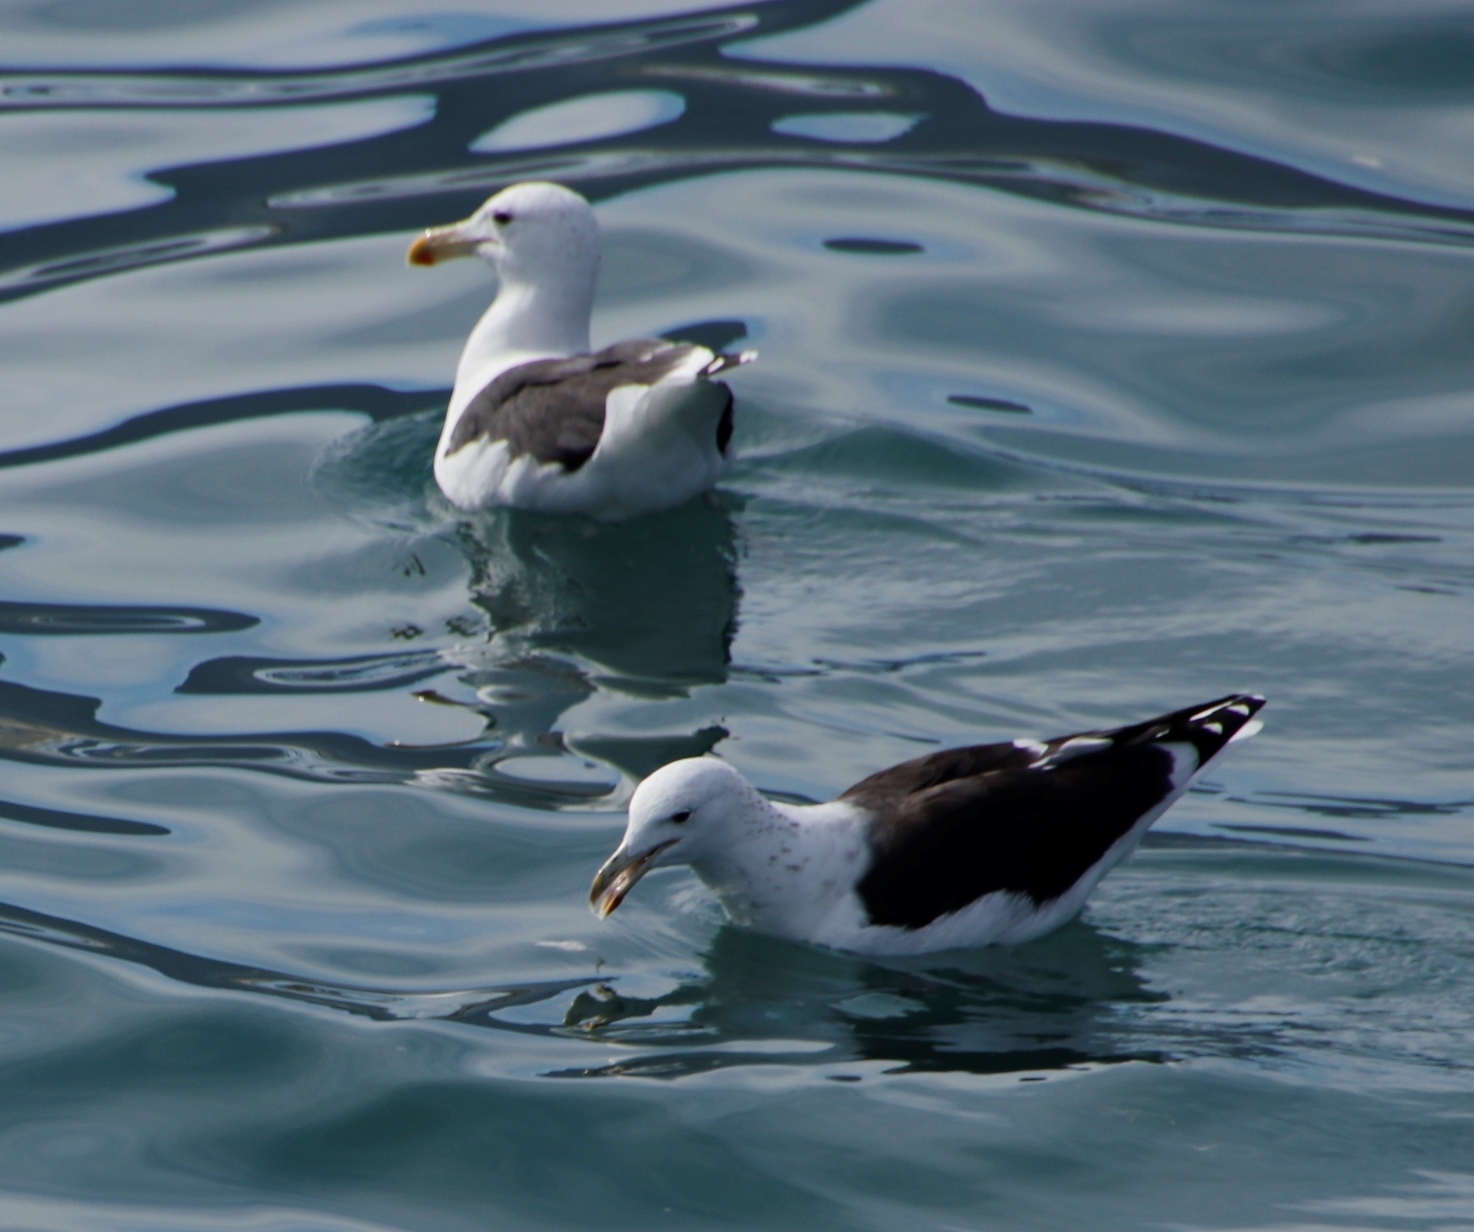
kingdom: Animalia
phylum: Chordata
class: Aves
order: Charadriiformes
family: Laridae
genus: Larus
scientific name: Larus dominicanus
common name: Kelp gull
